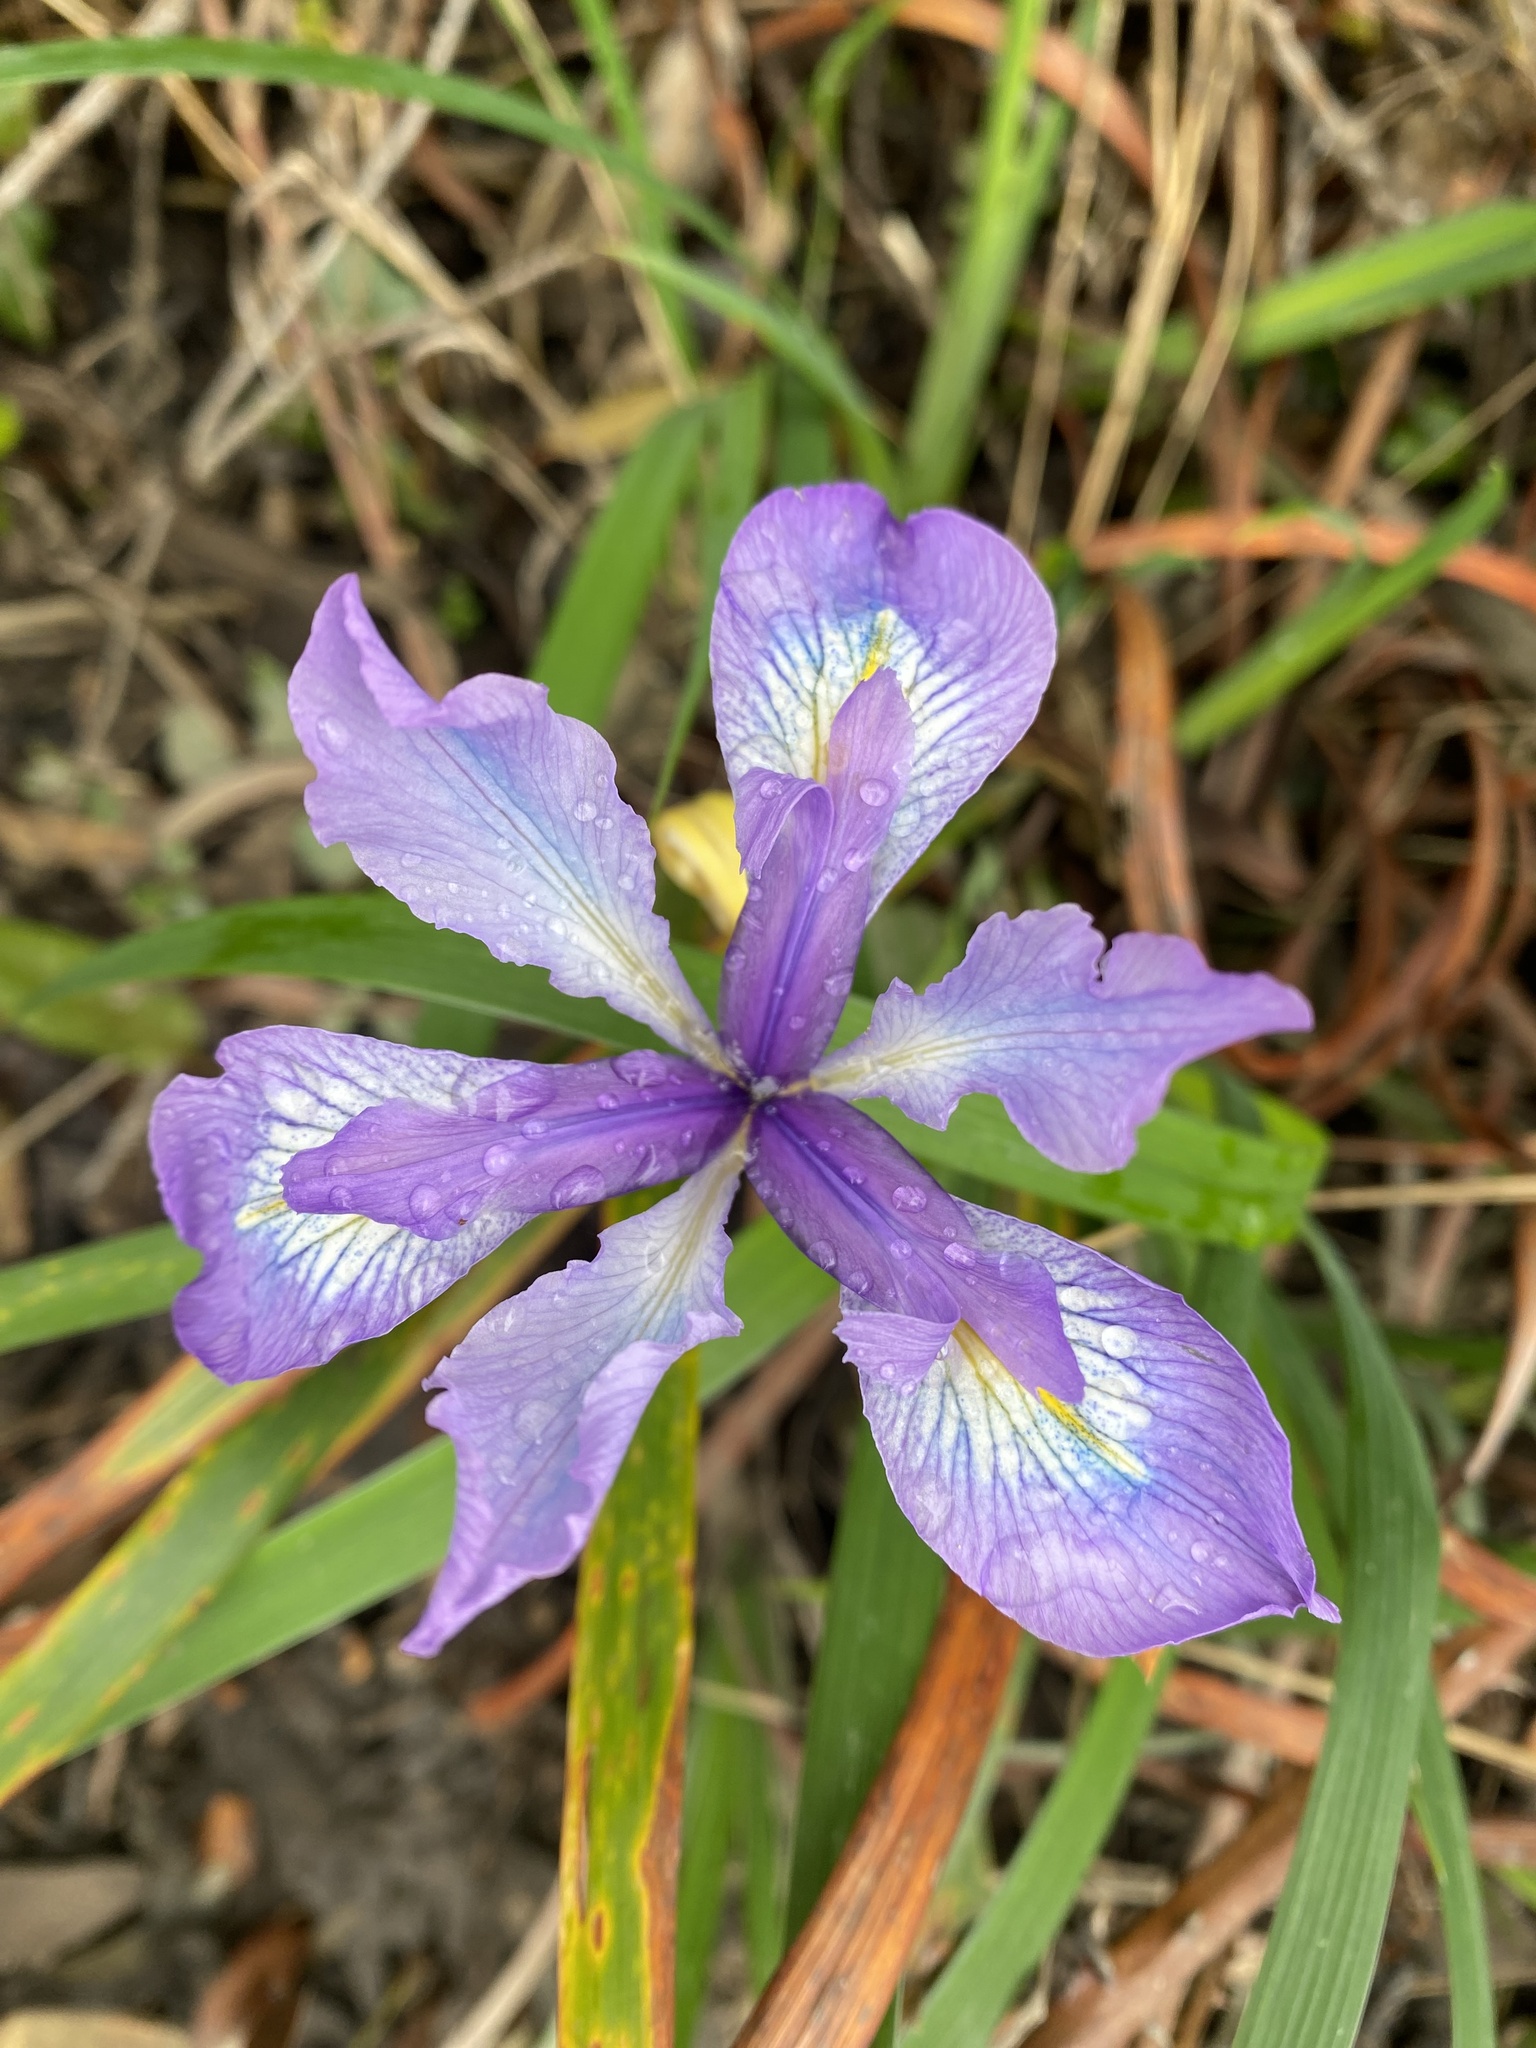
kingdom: Plantae
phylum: Tracheophyta
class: Liliopsida
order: Asparagales
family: Iridaceae
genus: Iris
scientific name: Iris douglasiana
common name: Marin iris
